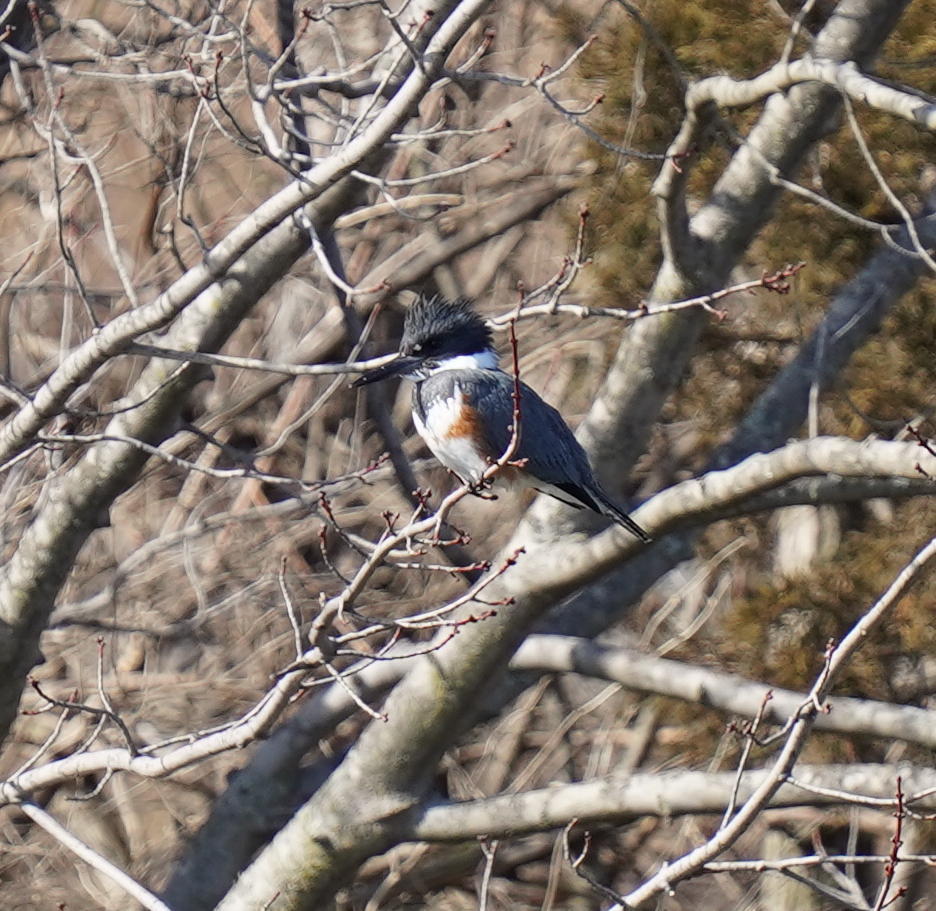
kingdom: Animalia
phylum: Chordata
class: Aves
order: Coraciiformes
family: Alcedinidae
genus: Megaceryle
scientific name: Megaceryle alcyon
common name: Belted kingfisher
